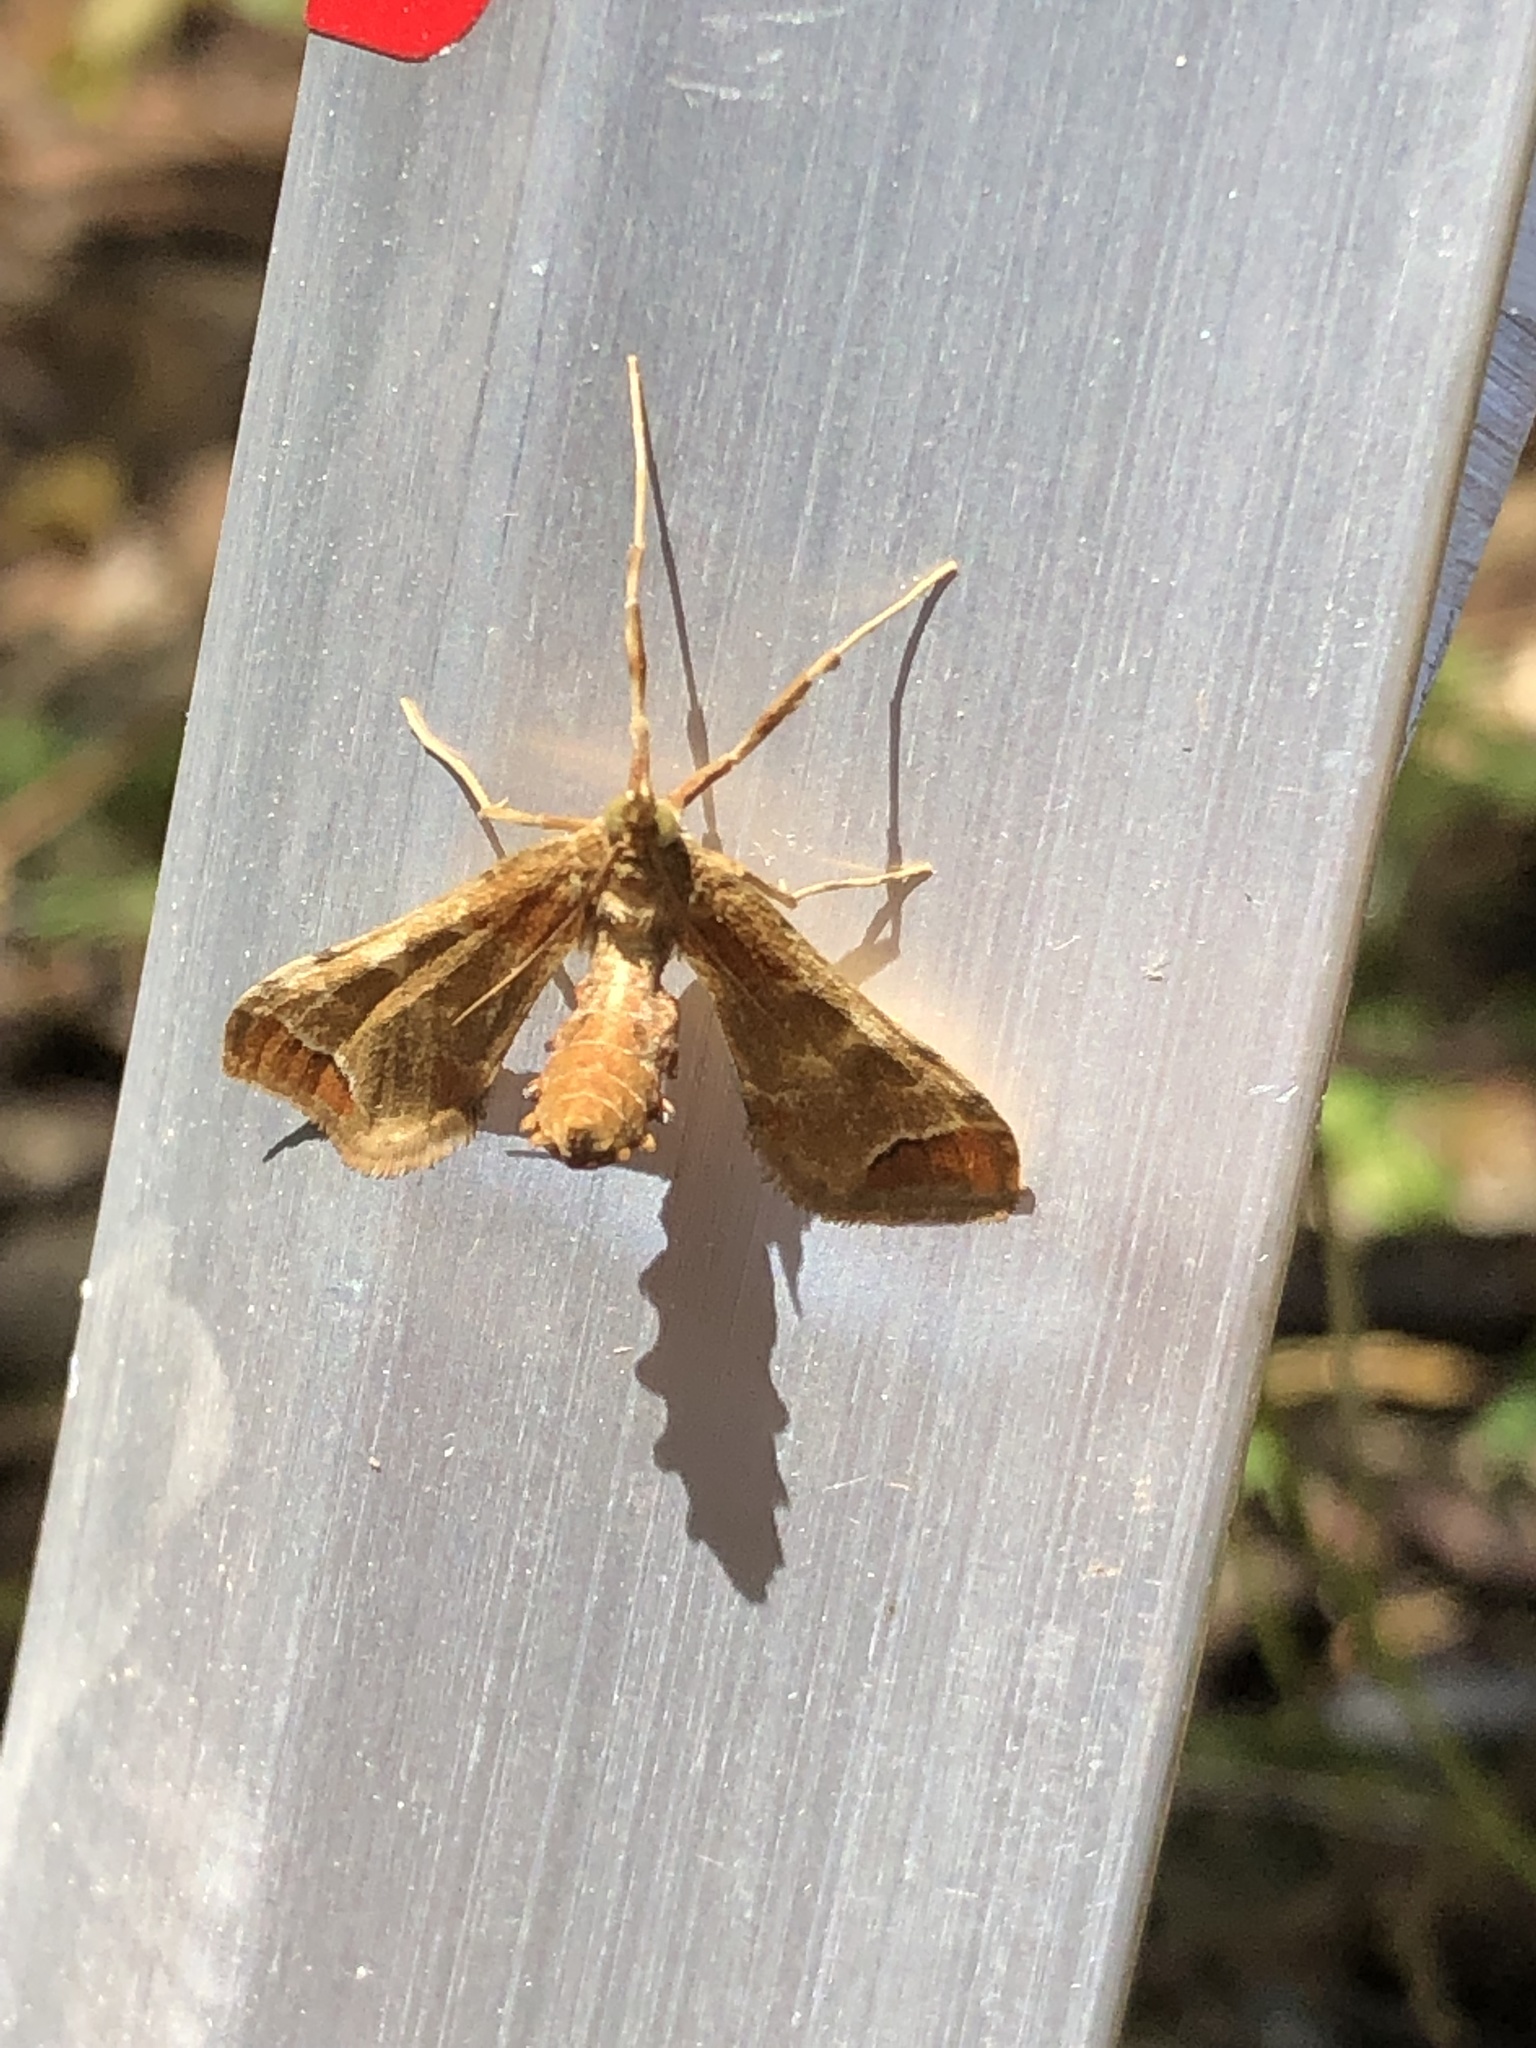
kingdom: Animalia
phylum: Arthropoda
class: Insecta
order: Lepidoptera
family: Crambidae
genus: Sceliodes
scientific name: Sceliodes cordalis
